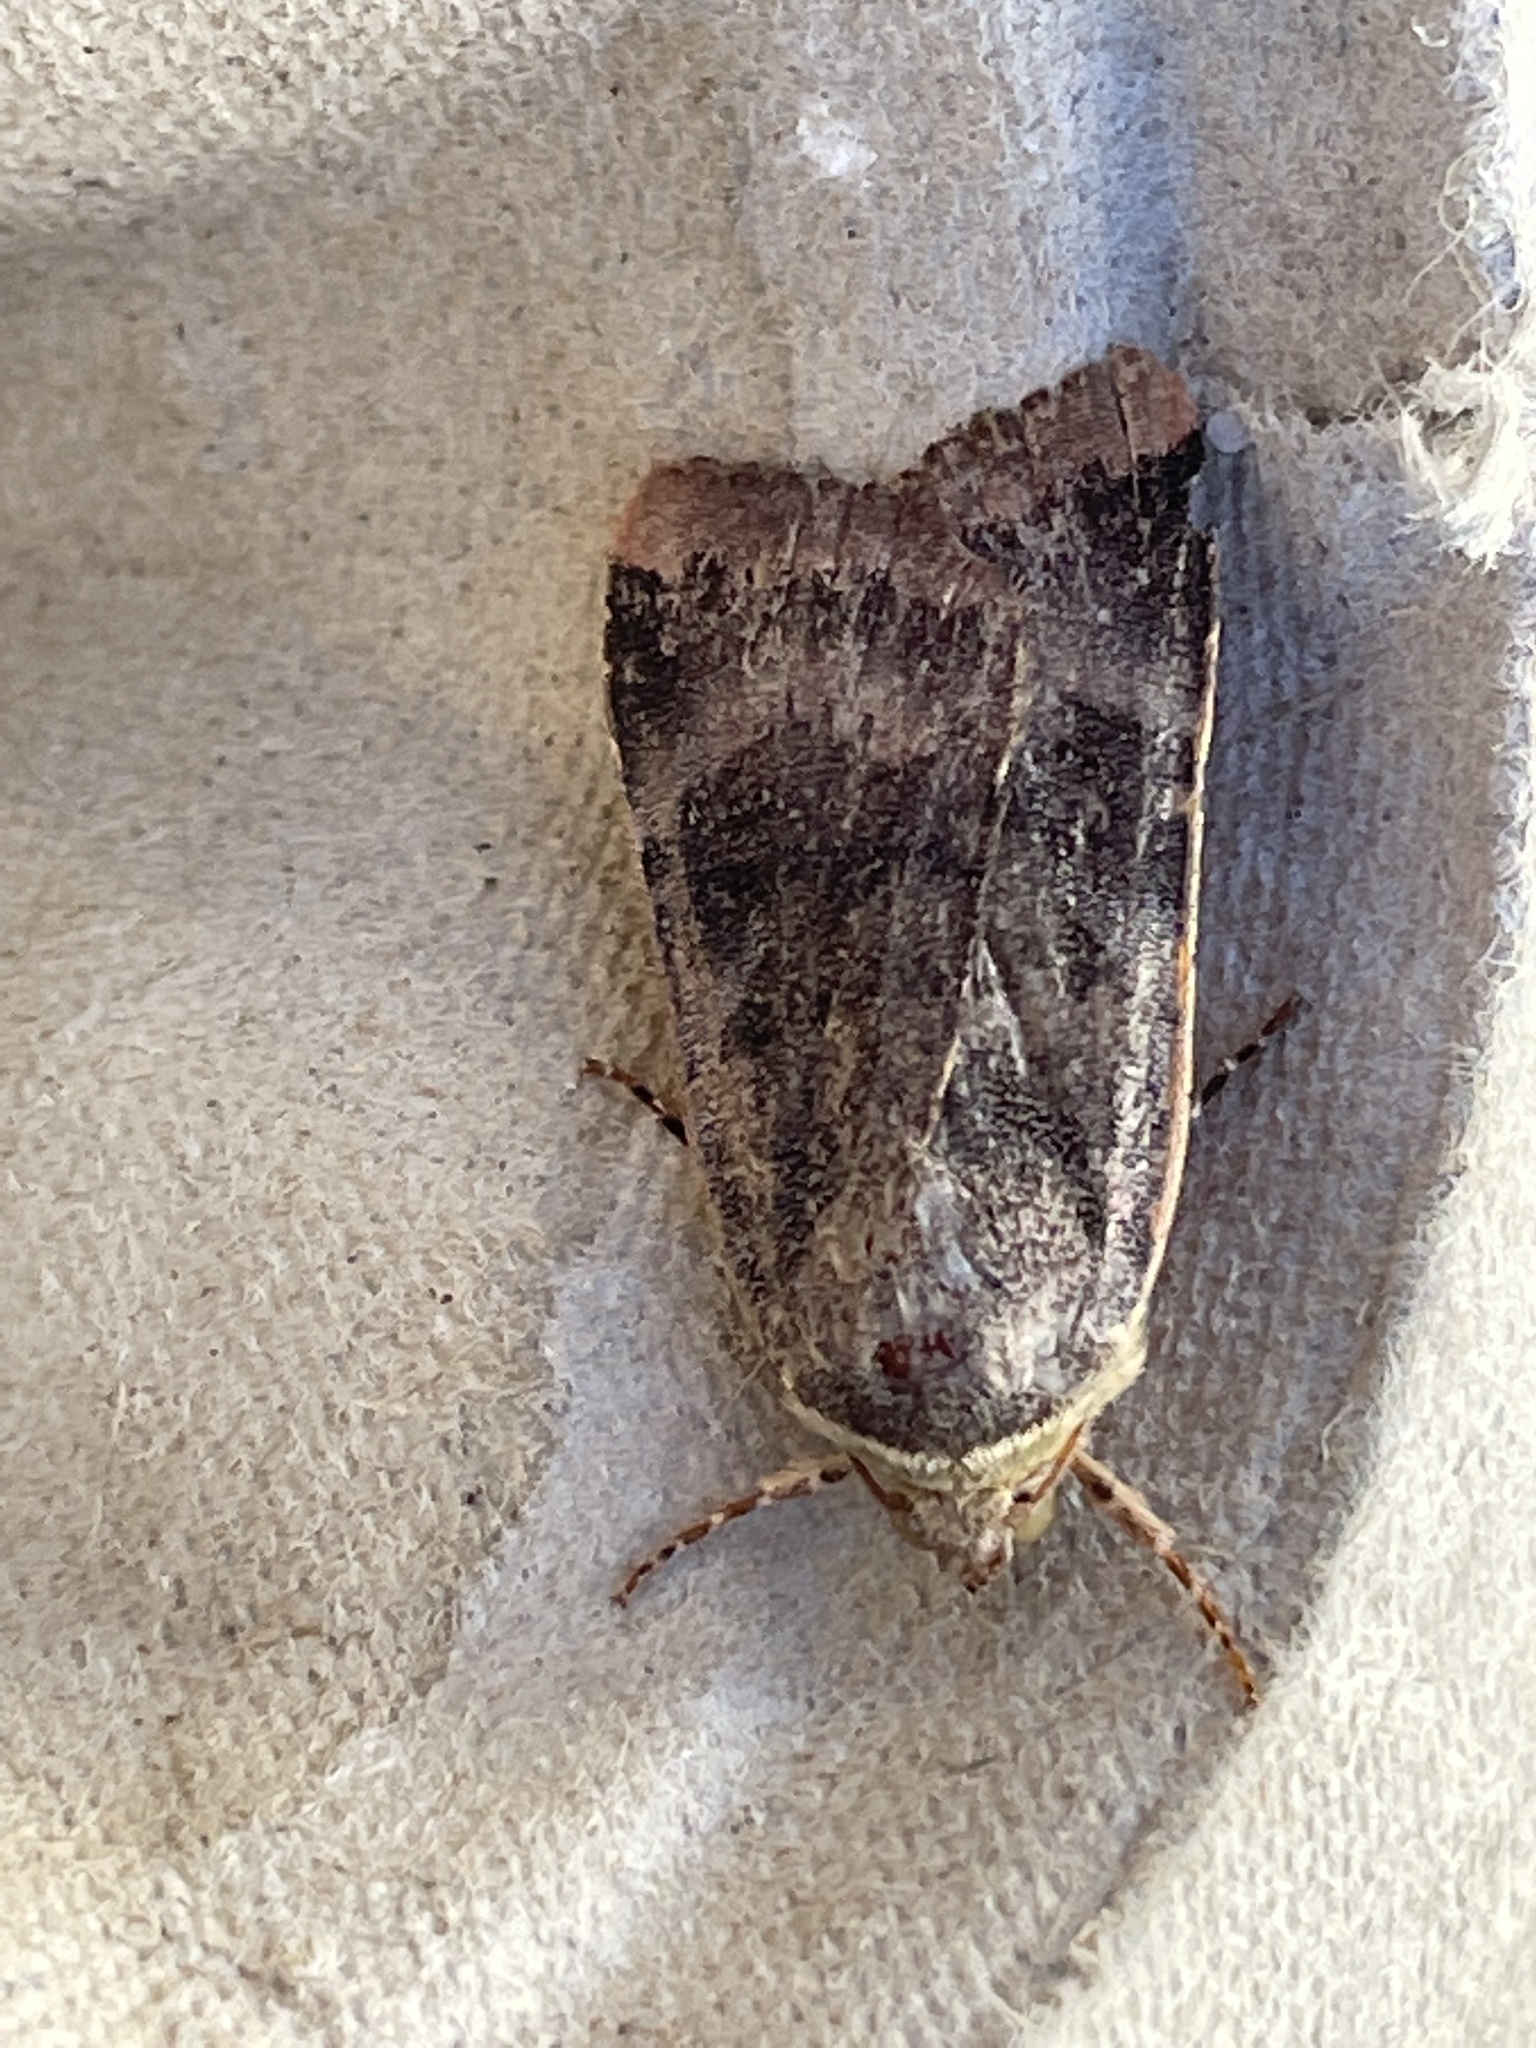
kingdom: Animalia
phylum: Arthropoda
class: Insecta
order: Lepidoptera
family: Noctuidae
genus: Noctua
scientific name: Noctua janthe
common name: Lesser broad-bordered yellow underwing
